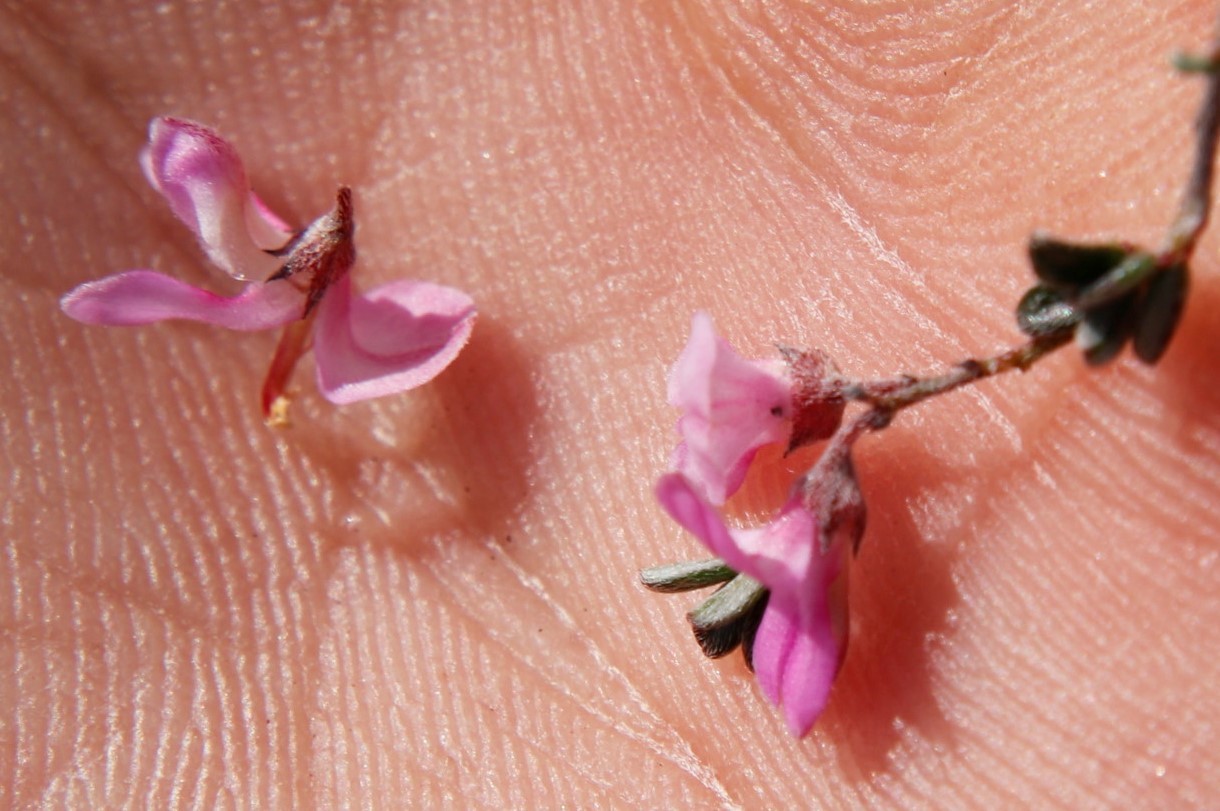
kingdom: Plantae
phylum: Tracheophyta
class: Magnoliopsida
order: Fabales
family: Fabaceae
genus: Indigofera
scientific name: Indigofera pilgeriana
